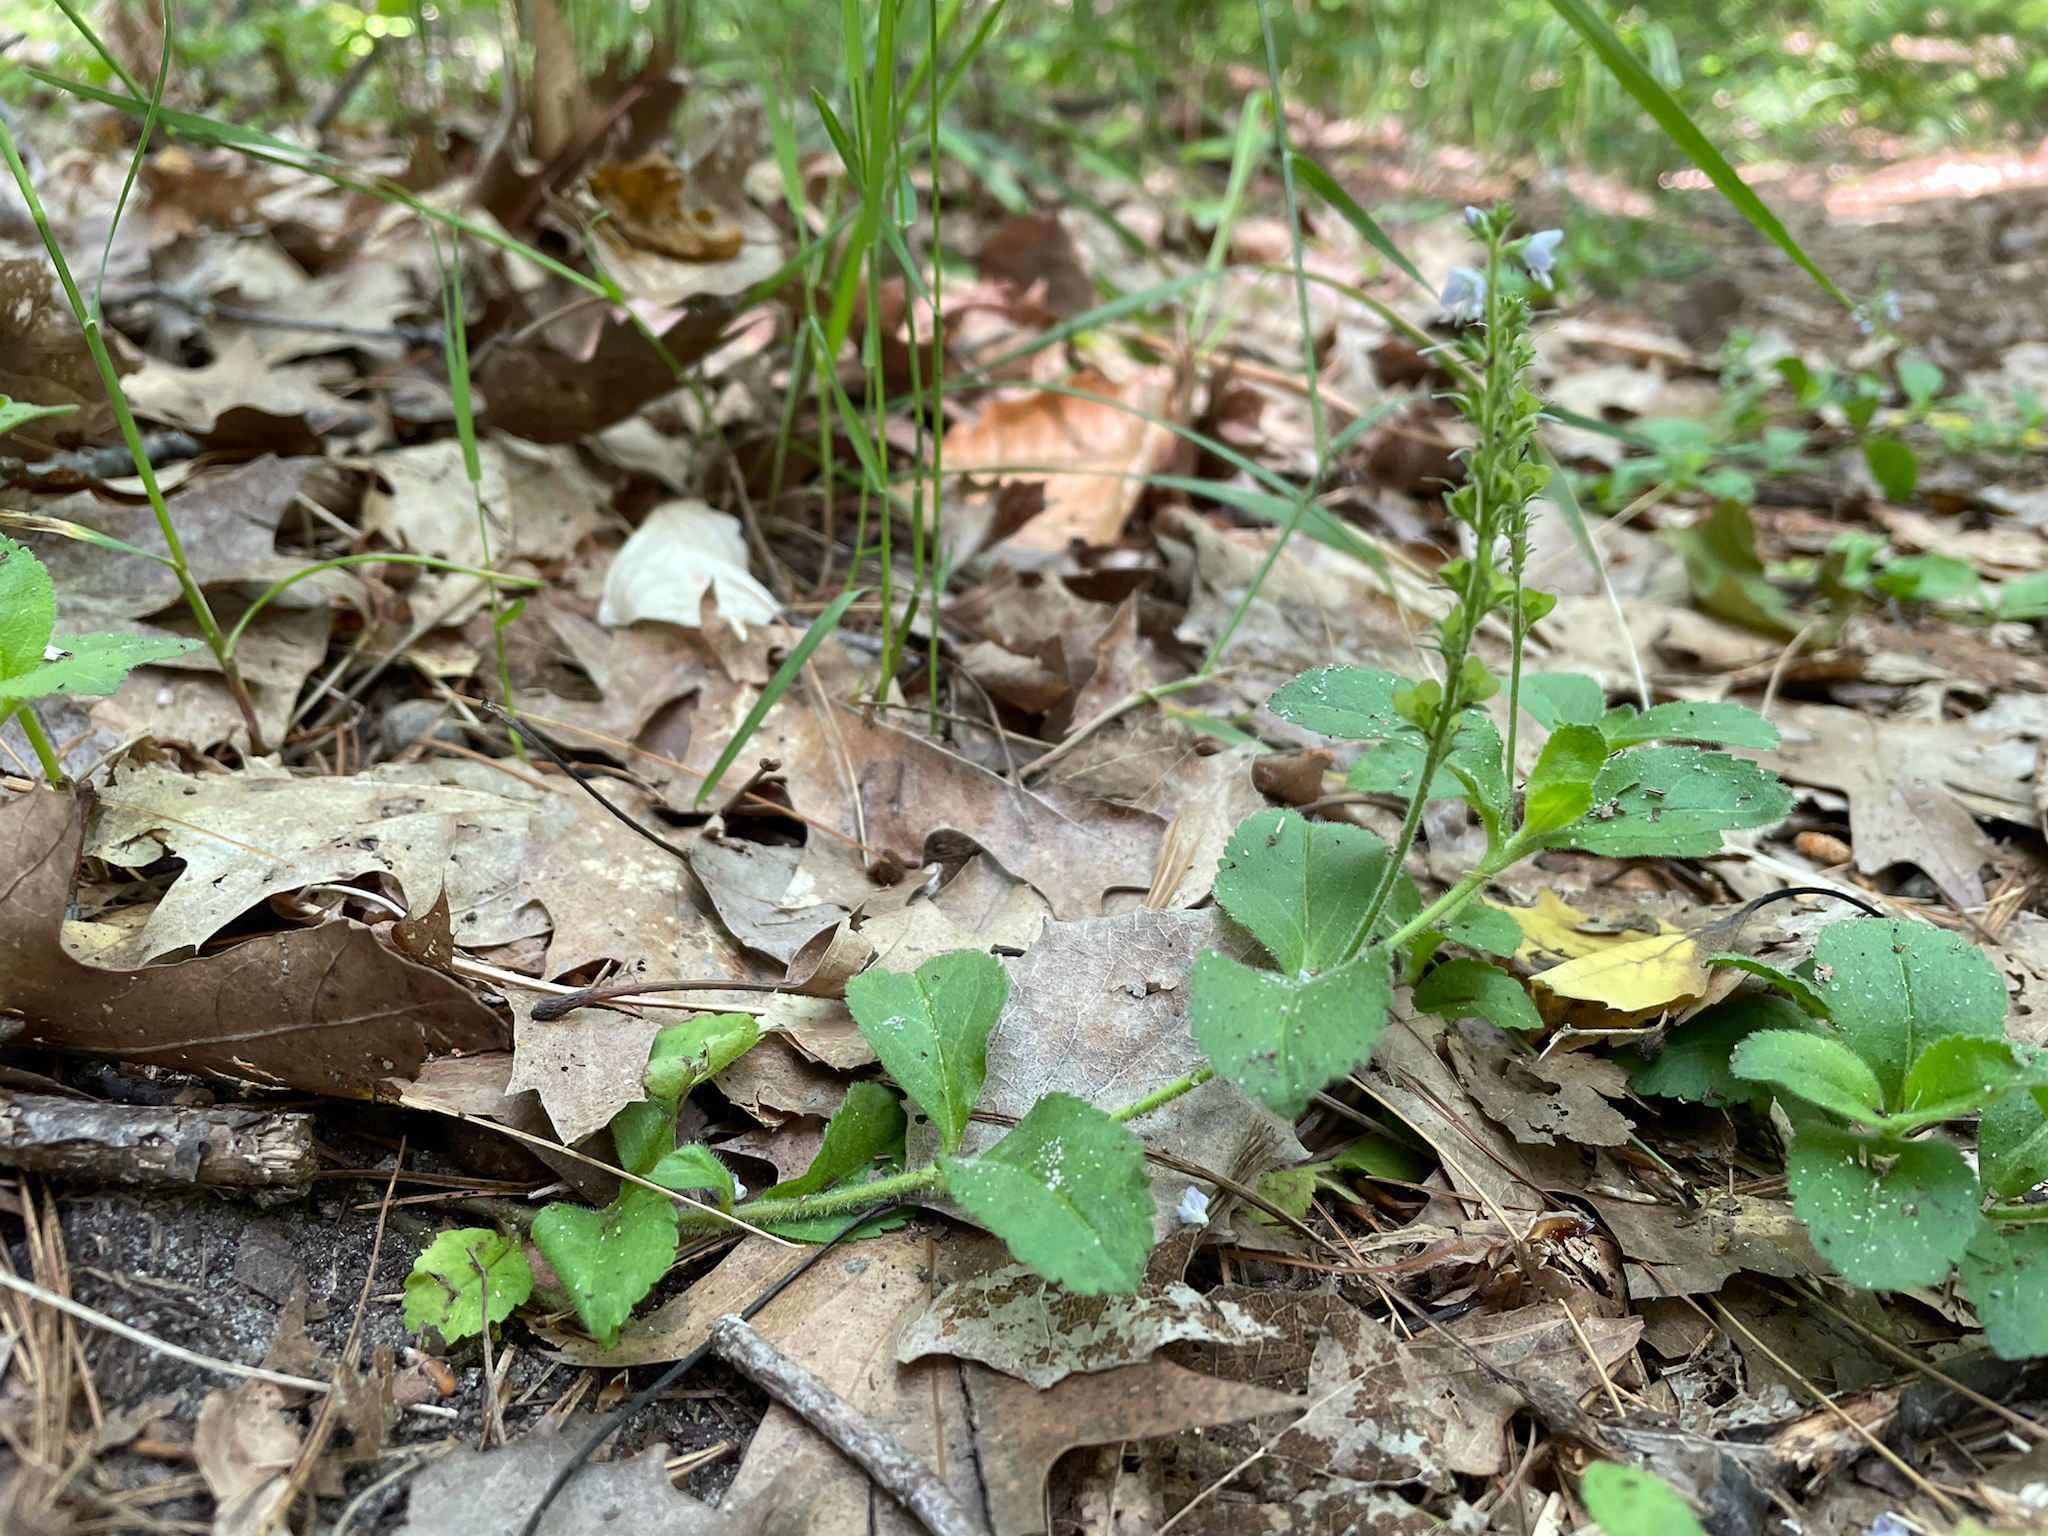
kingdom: Plantae
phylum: Tracheophyta
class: Magnoliopsida
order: Lamiales
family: Plantaginaceae
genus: Veronica
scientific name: Veronica officinalis
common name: Common speedwell
